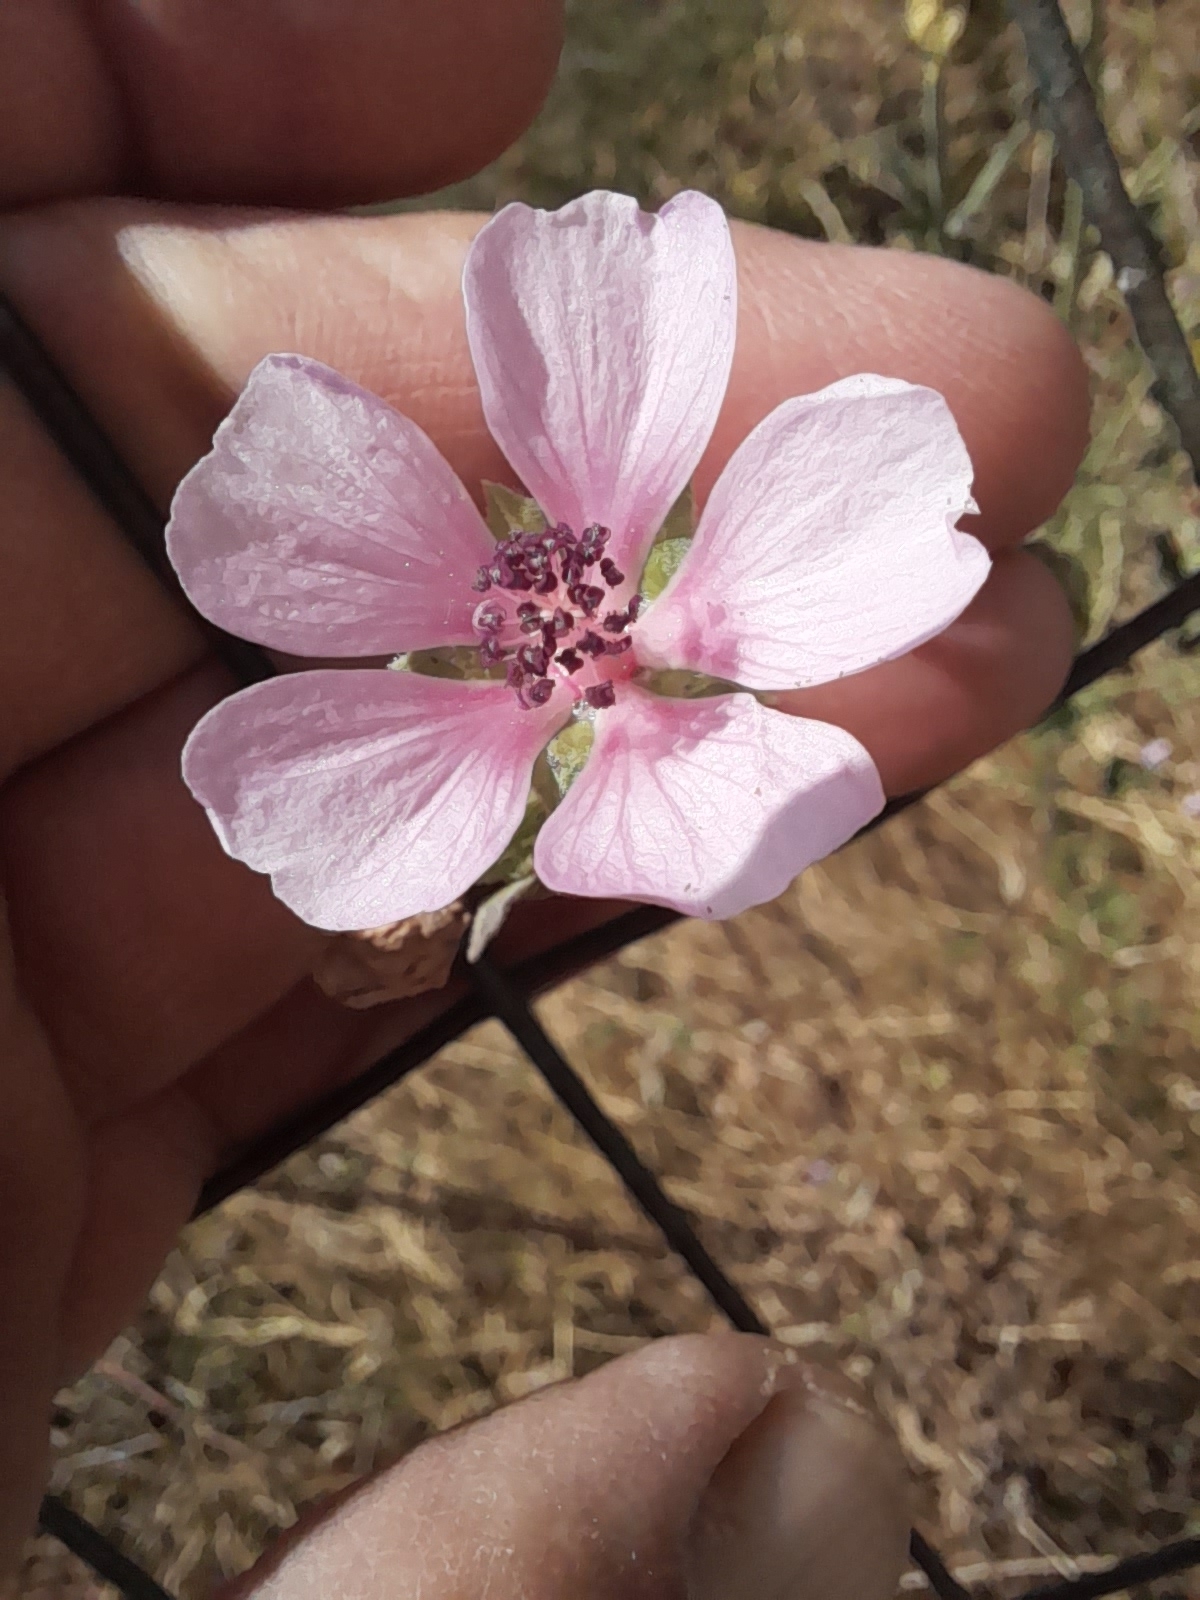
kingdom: Plantae
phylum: Tracheophyta
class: Magnoliopsida
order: Malvales
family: Malvaceae
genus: Althaea
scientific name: Althaea cannabina
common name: Palm-leaf marshmallow
